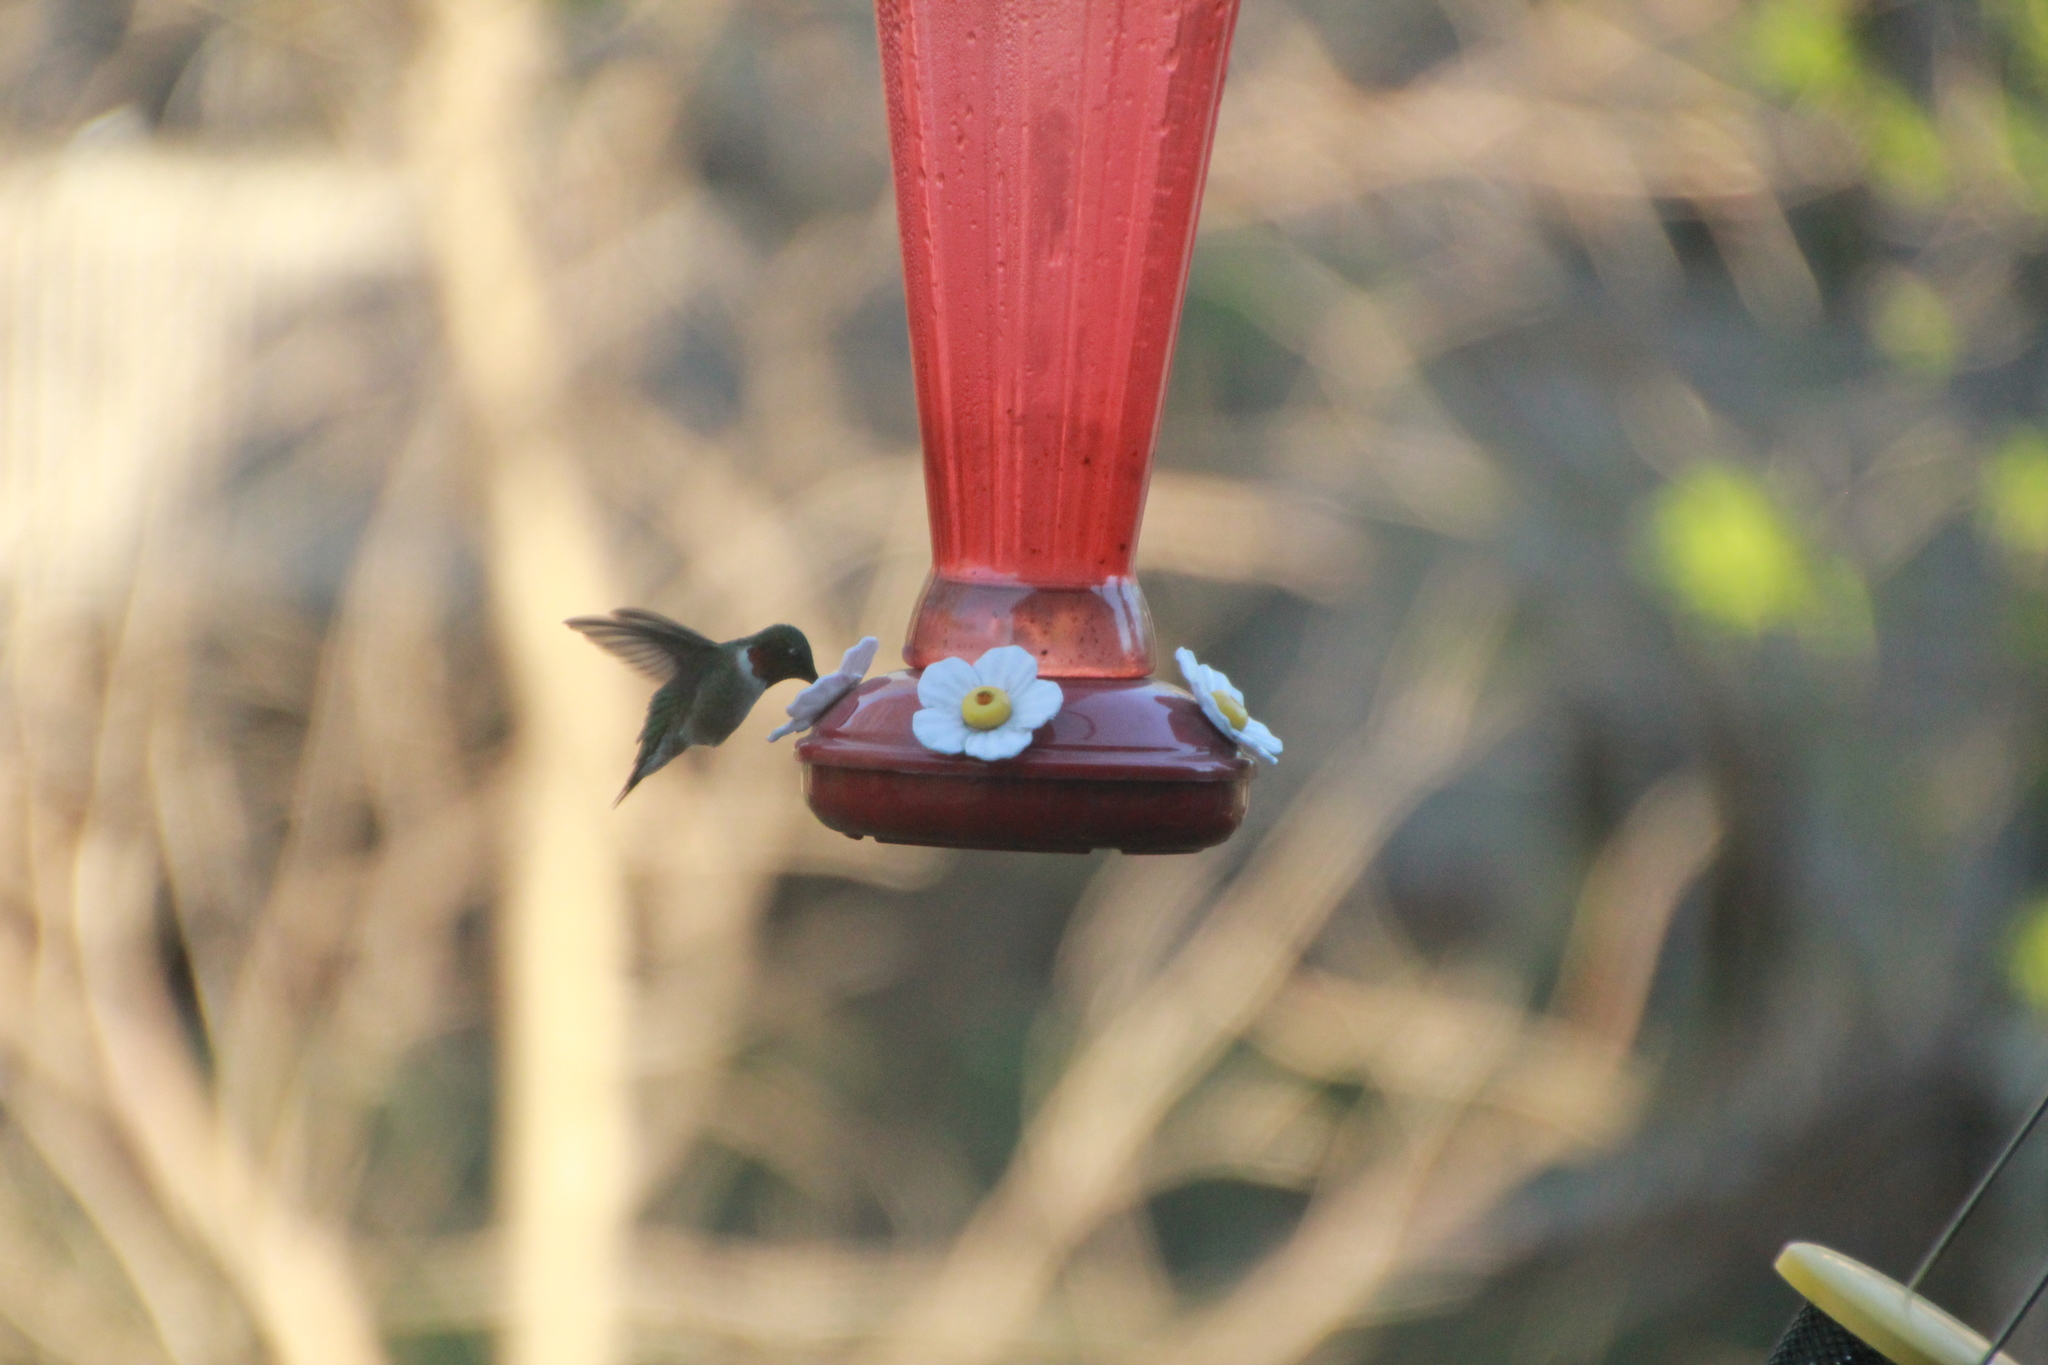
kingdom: Animalia
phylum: Chordata
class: Aves
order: Apodiformes
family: Trochilidae
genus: Archilochus
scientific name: Archilochus colubris
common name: Ruby-throated hummingbird
